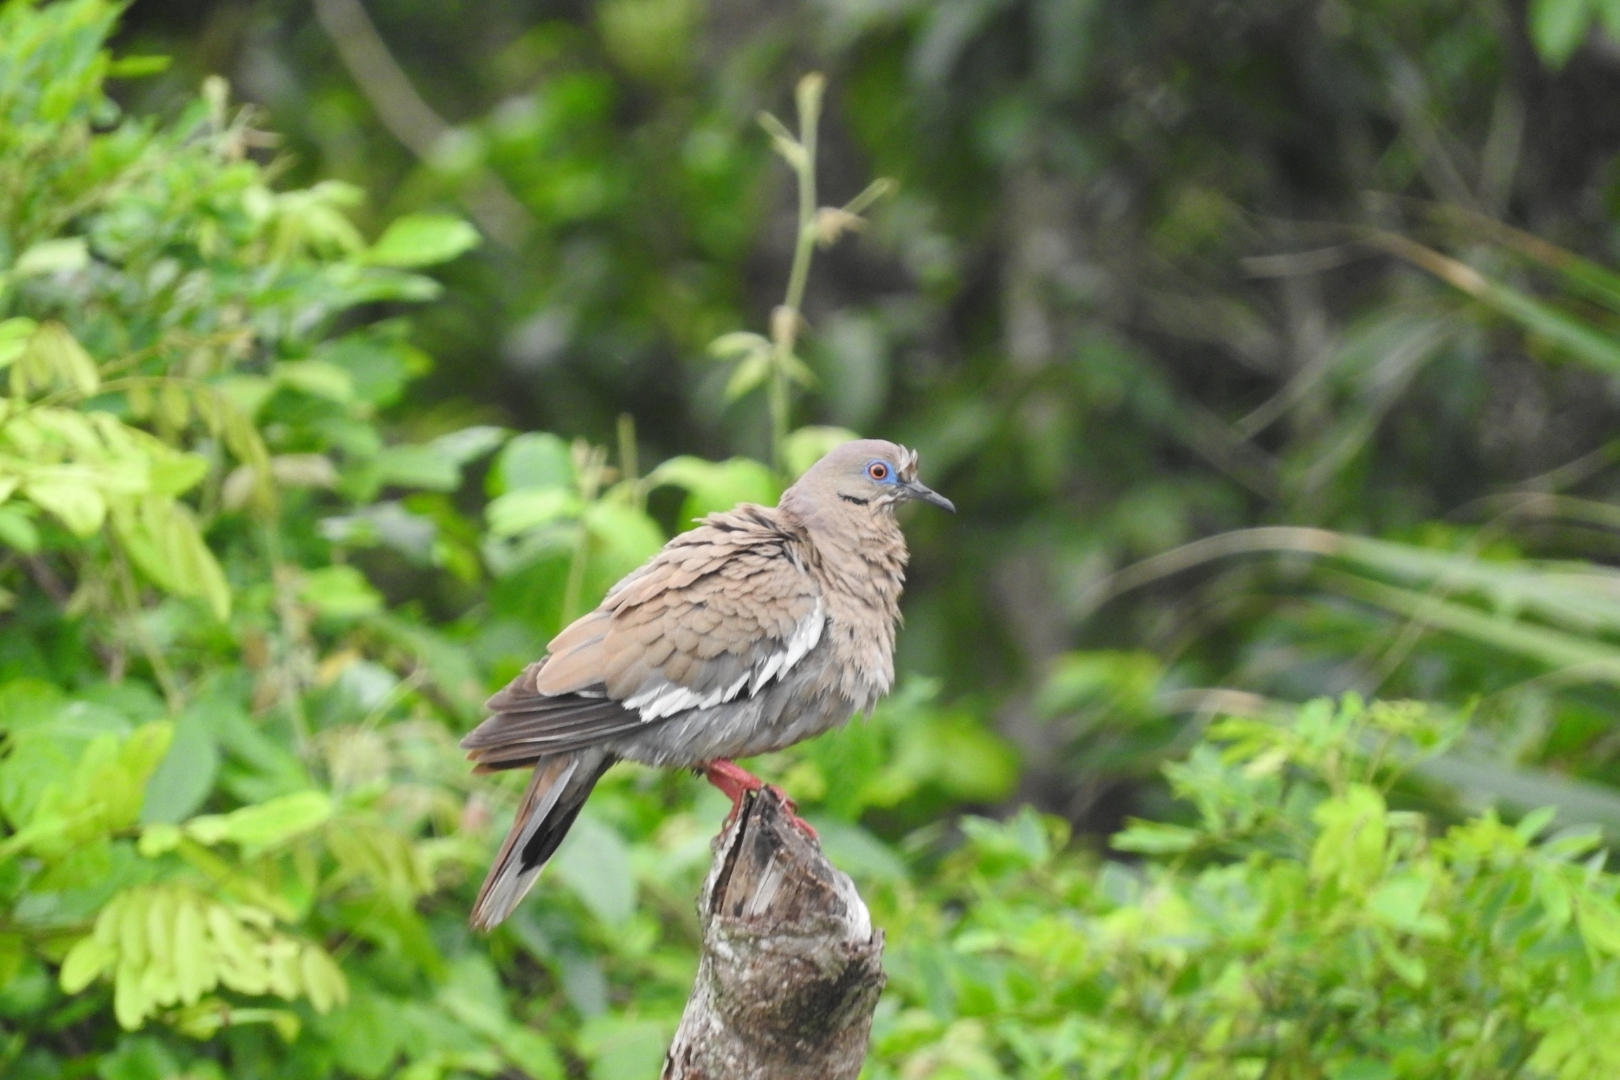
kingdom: Animalia
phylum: Chordata
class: Aves
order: Columbiformes
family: Columbidae
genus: Zenaida
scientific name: Zenaida asiatica
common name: White-winged dove
